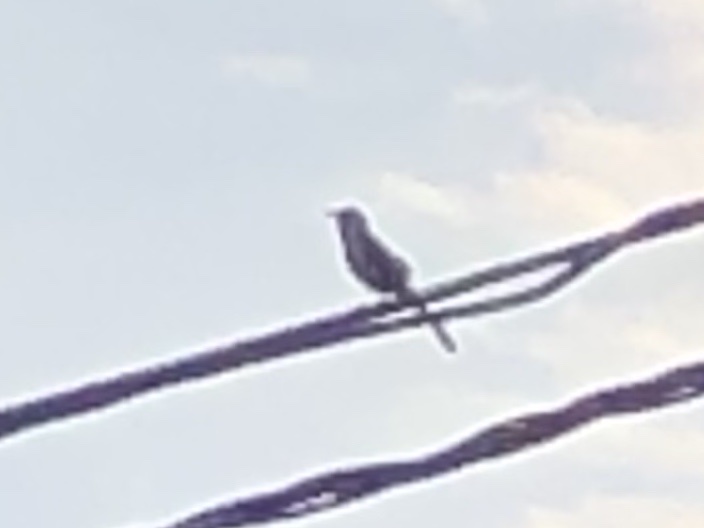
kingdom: Animalia
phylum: Chordata
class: Aves
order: Passeriformes
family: Mimidae
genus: Mimus
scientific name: Mimus polyglottos
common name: Northern mockingbird
